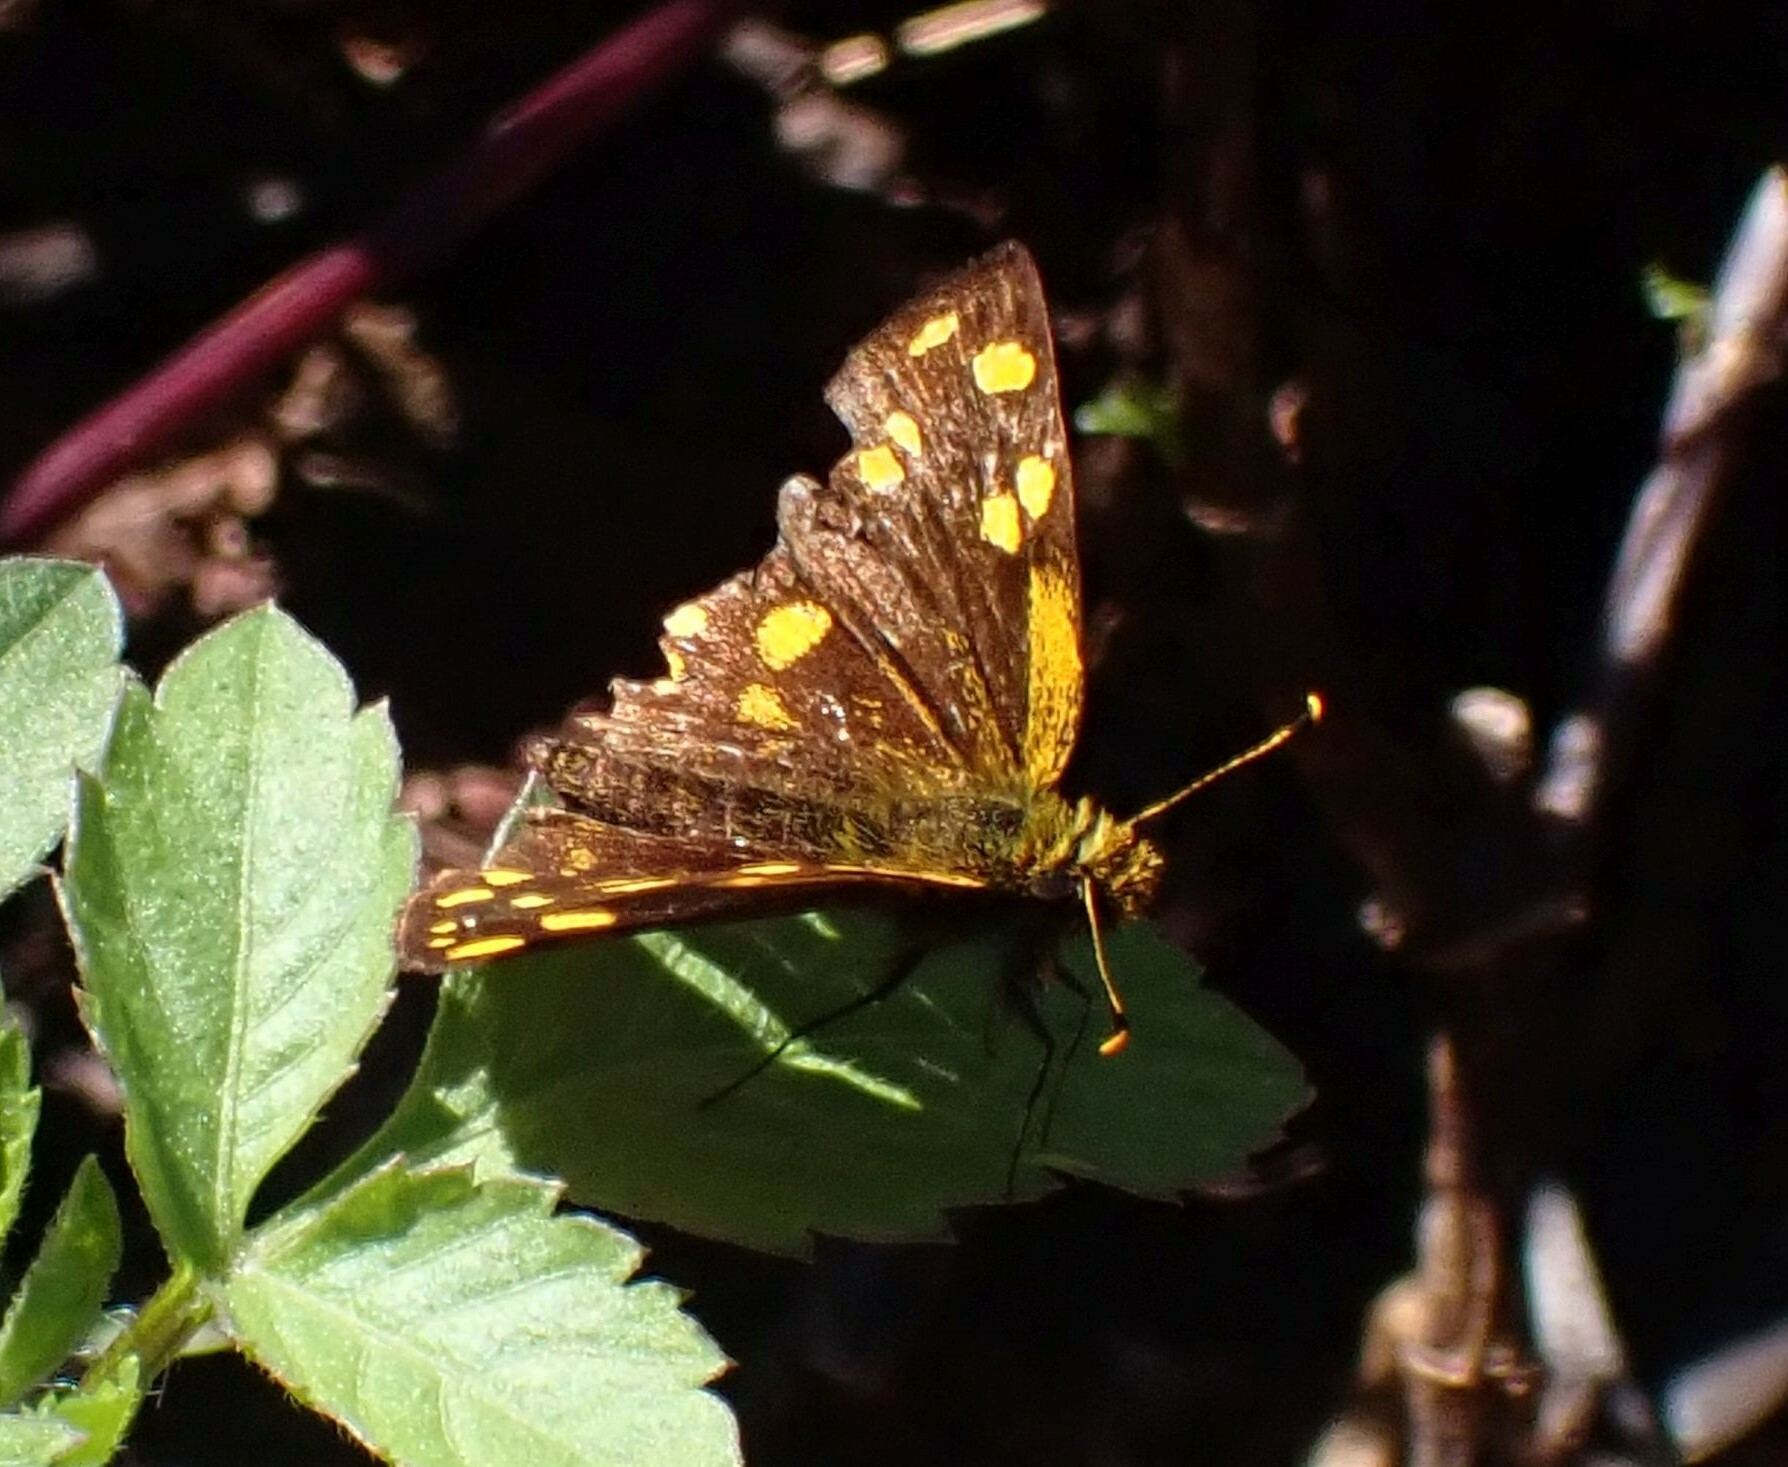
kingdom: Animalia
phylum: Arthropoda
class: Insecta
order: Lepidoptera
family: Hesperiidae
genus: Metisella
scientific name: Metisella metis
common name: Western gold-spotted sylph
